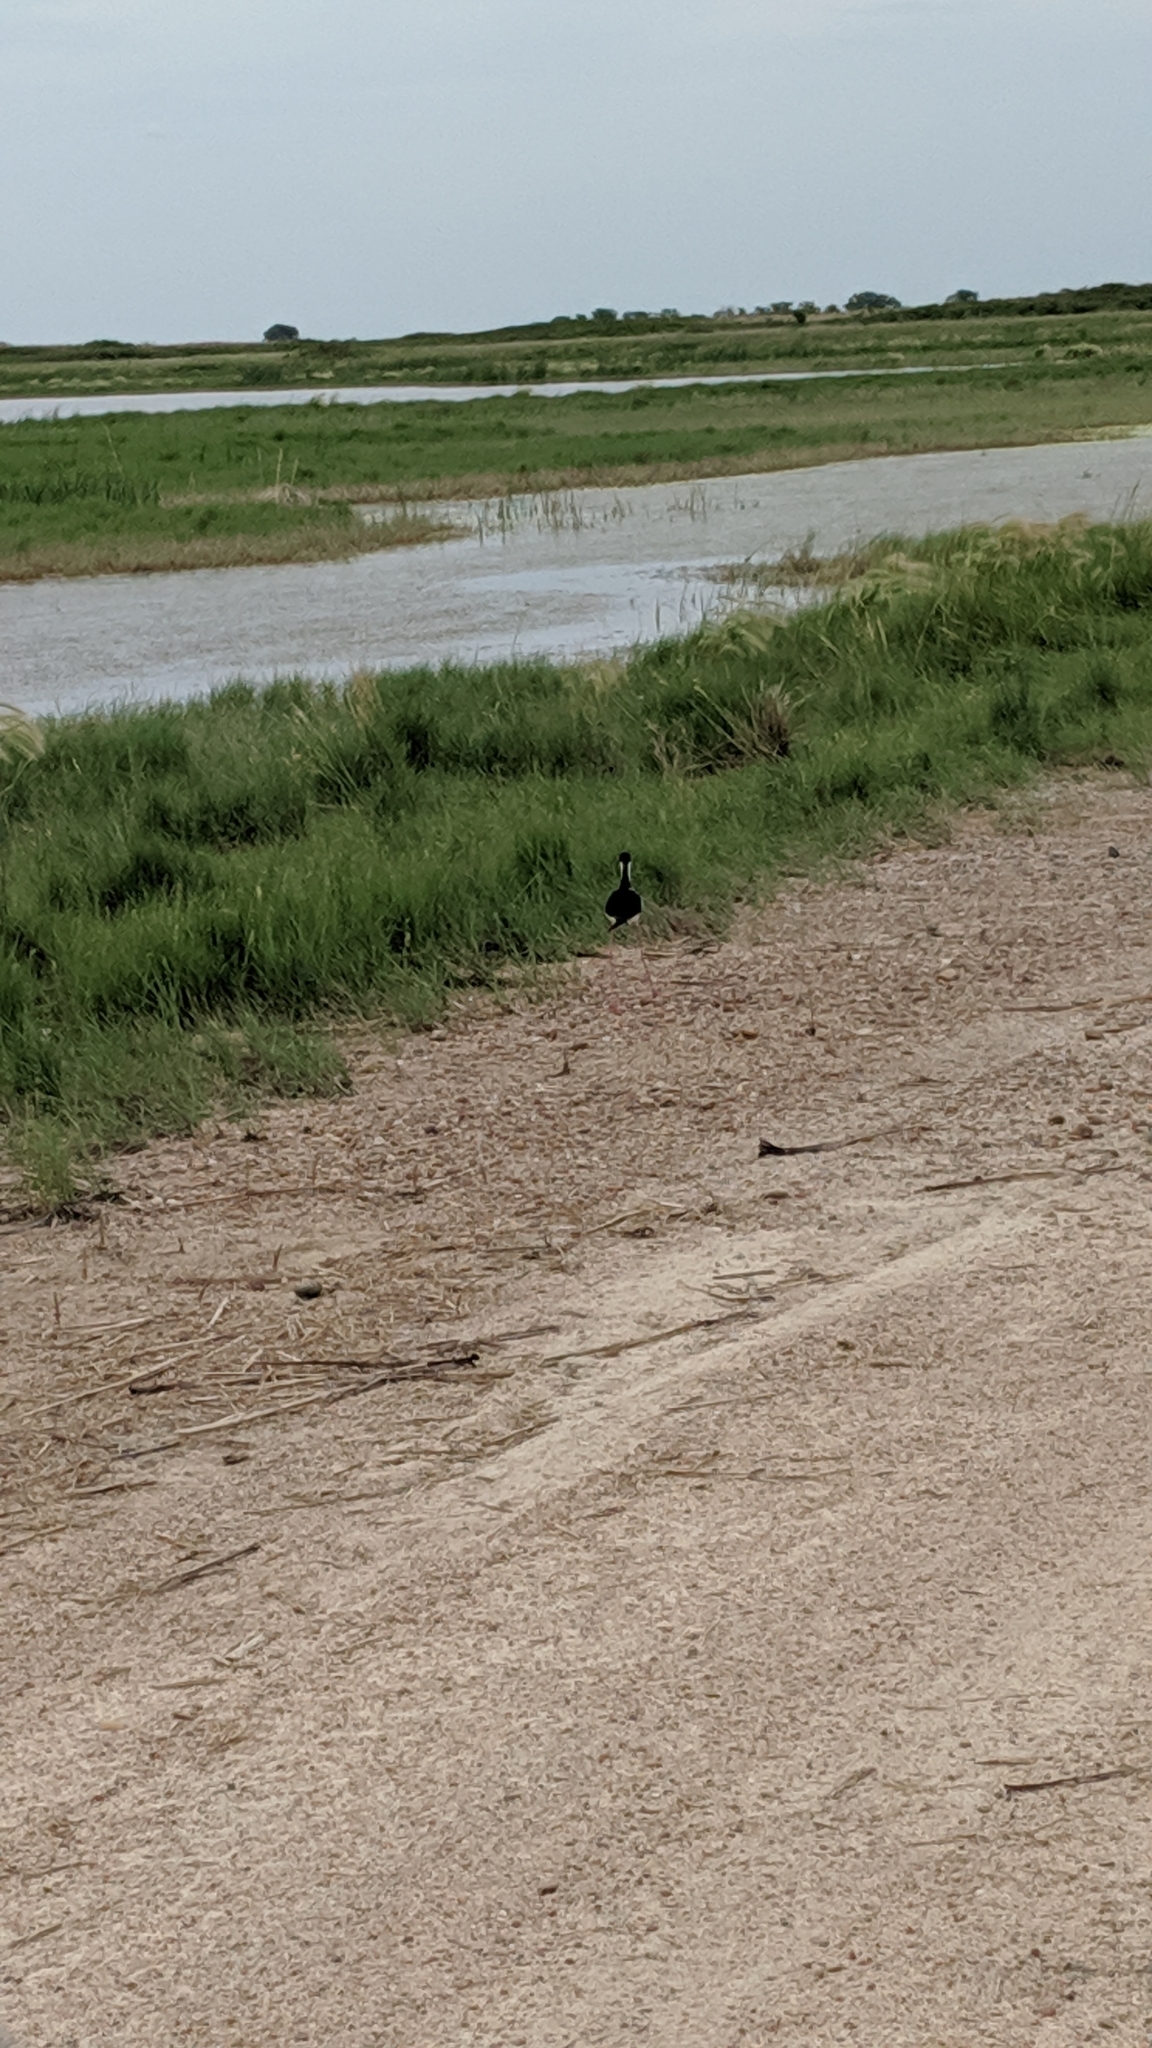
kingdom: Animalia
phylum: Chordata
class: Aves
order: Charadriiformes
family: Recurvirostridae
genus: Himantopus
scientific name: Himantopus mexicanus
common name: Black-necked stilt
